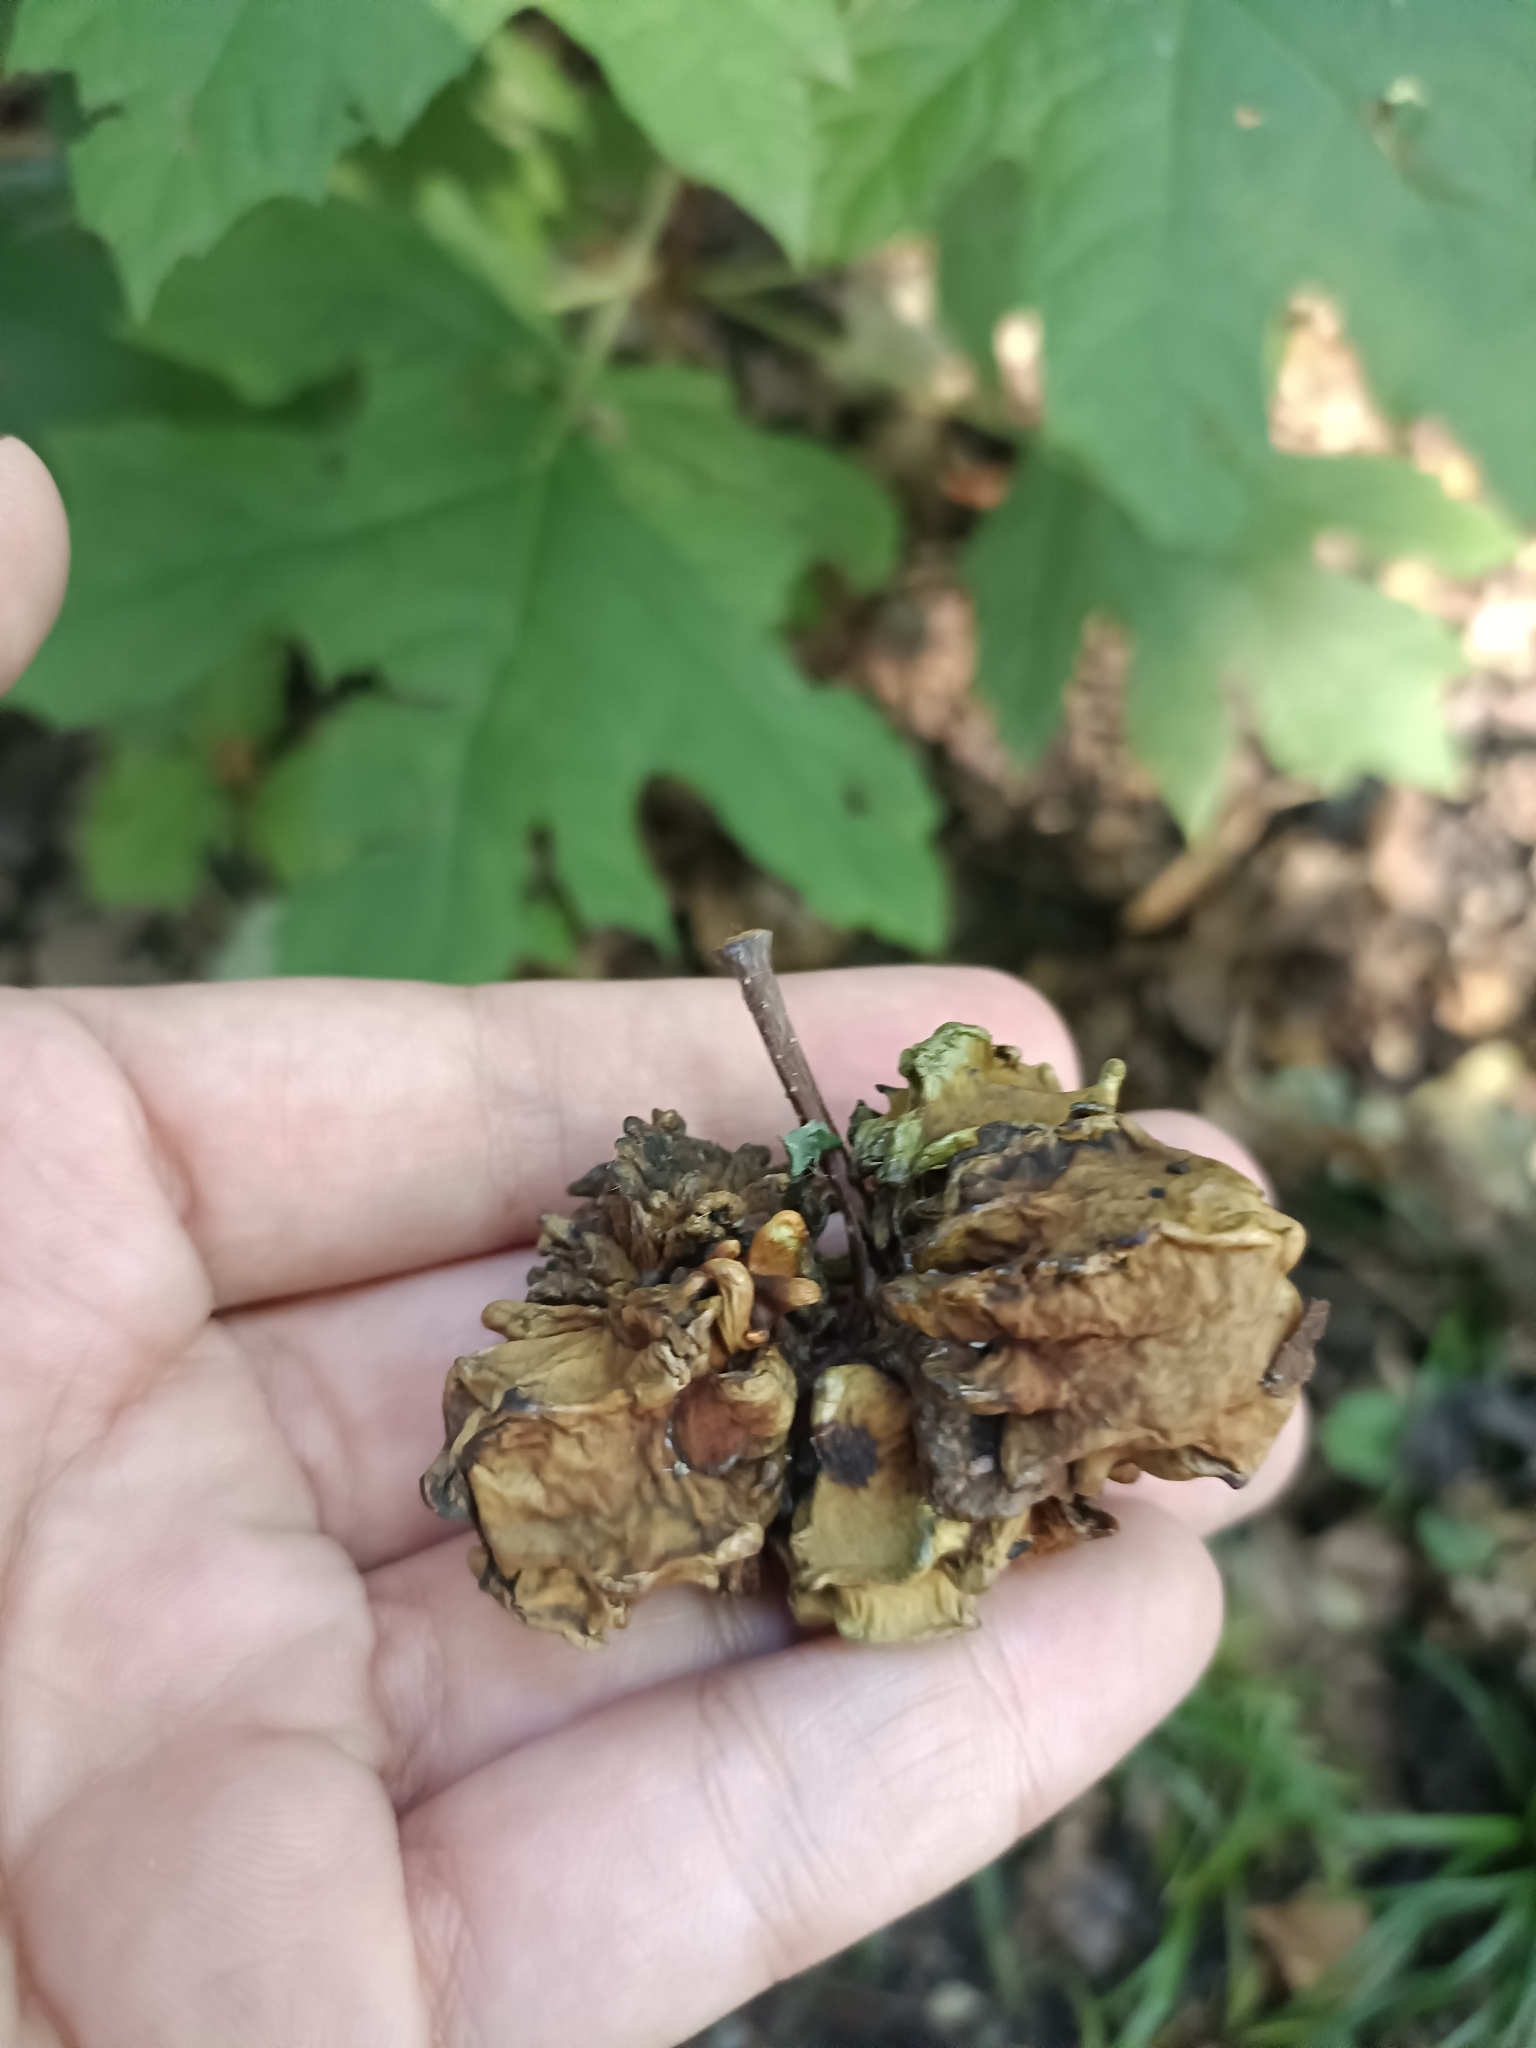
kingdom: Animalia
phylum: Arthropoda
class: Insecta
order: Hymenoptera
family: Cynipidae
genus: Andricus
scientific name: Andricus quercuscalicis
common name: Knopper gall
